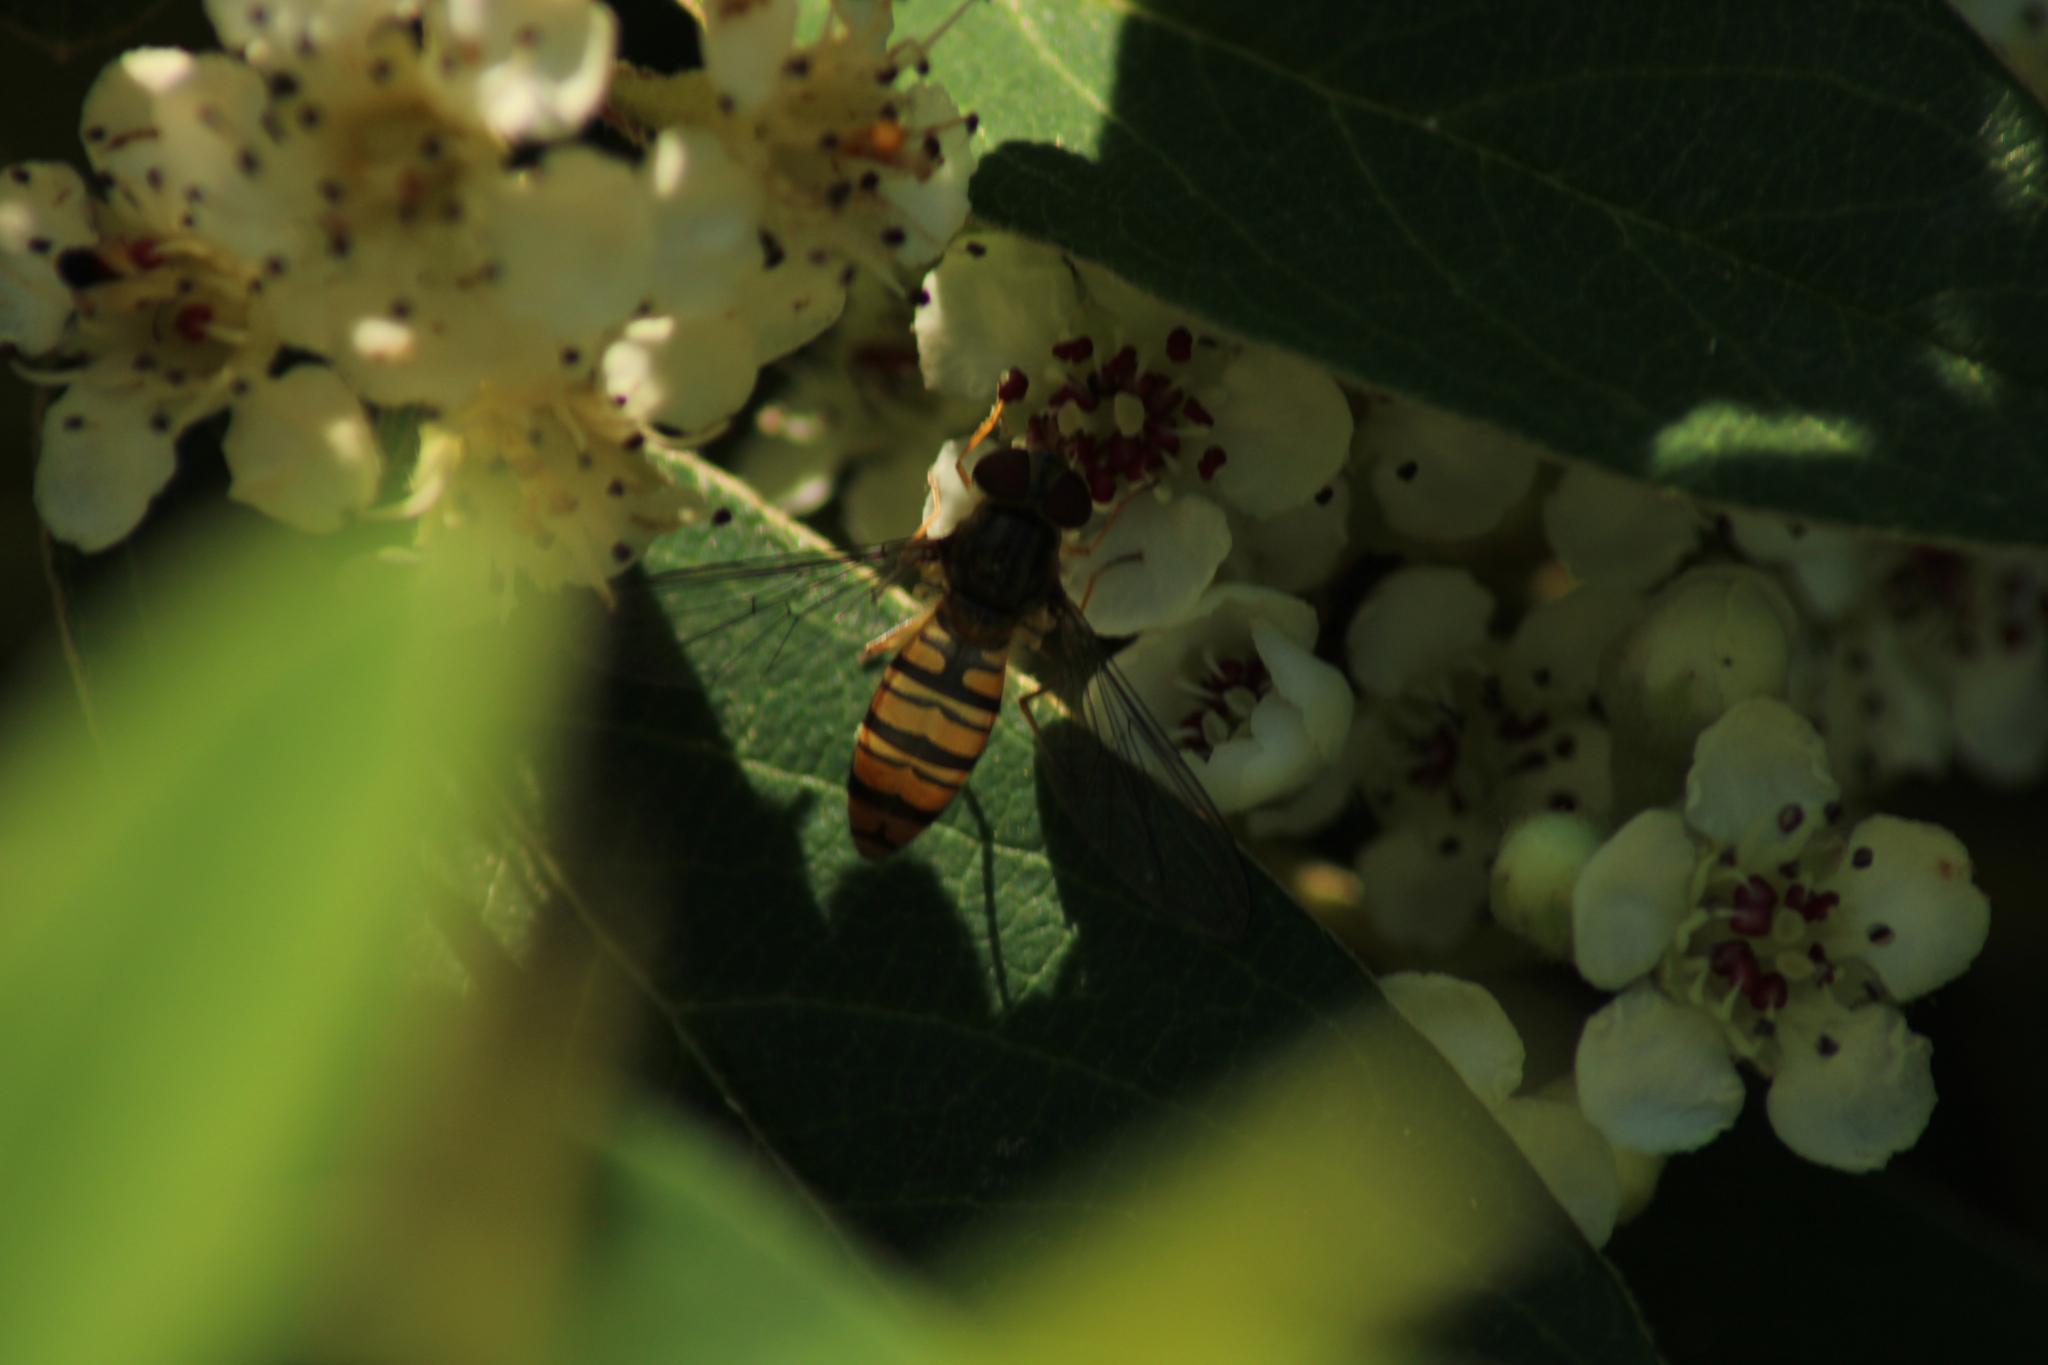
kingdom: Animalia
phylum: Arthropoda
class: Insecta
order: Diptera
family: Syrphidae
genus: Episyrphus
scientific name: Episyrphus balteatus
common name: Marmalade hoverfly
